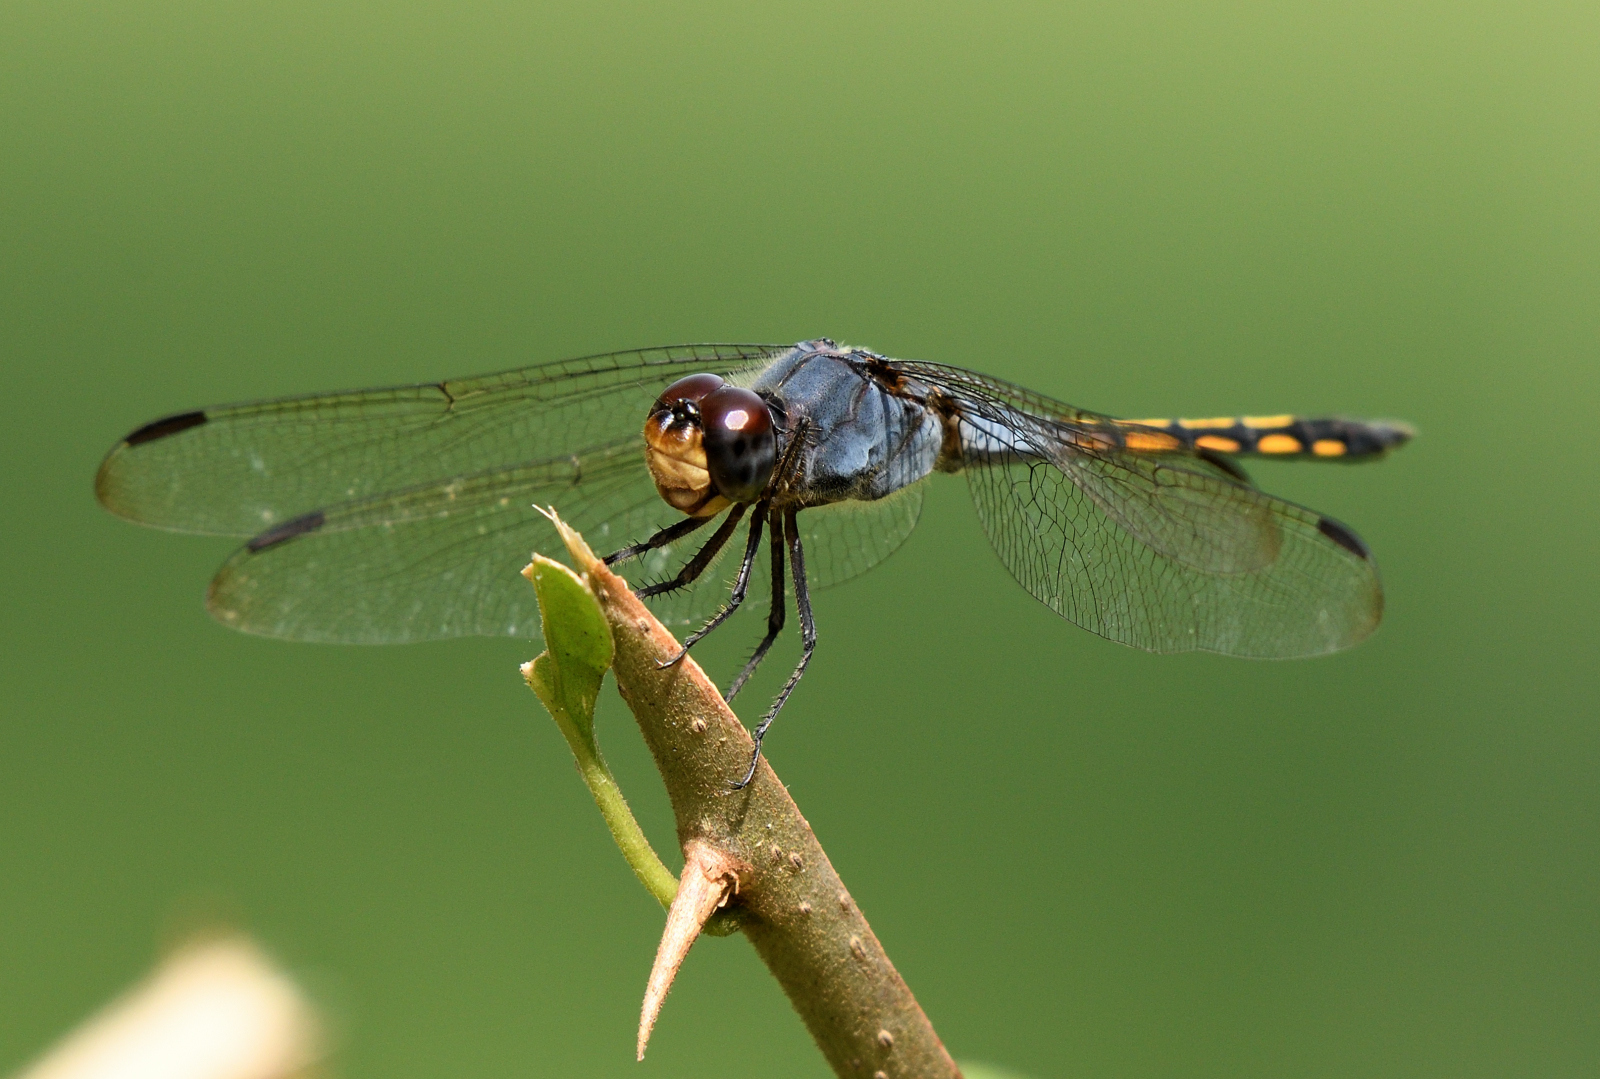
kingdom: Animalia
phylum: Arthropoda
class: Insecta
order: Odonata
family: Libellulidae
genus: Potamarcha
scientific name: Potamarcha congener
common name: Blue chaser
